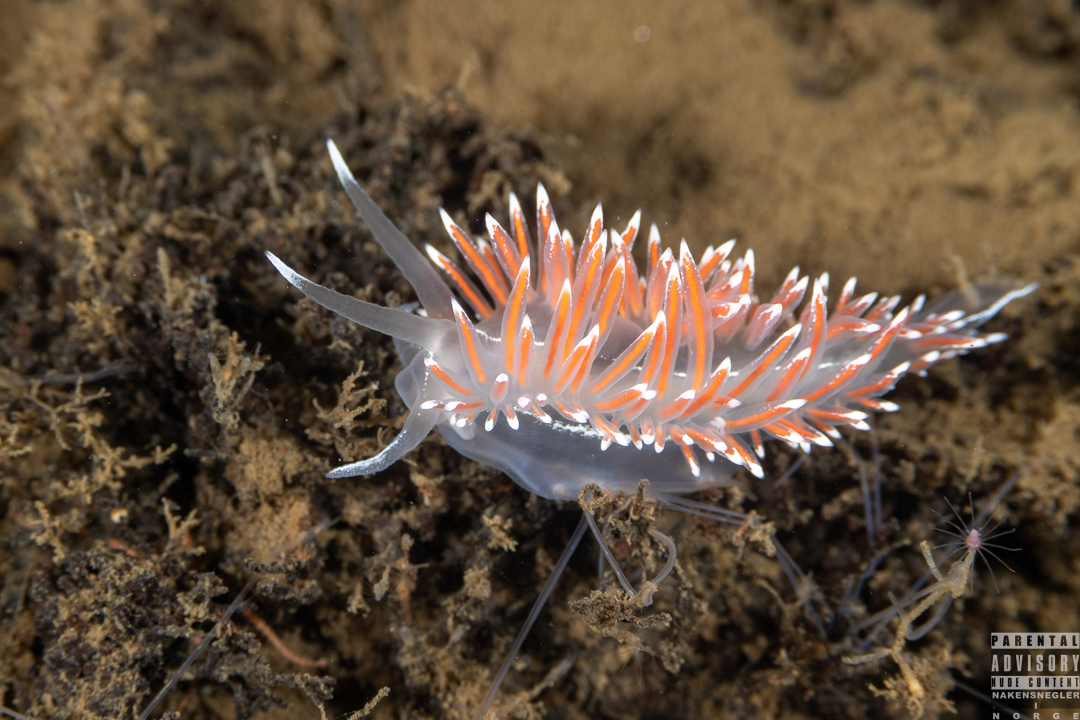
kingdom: Animalia
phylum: Mollusca
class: Gastropoda
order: Nudibranchia
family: Coryphellidae
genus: Coryphella
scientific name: Coryphella lineata
